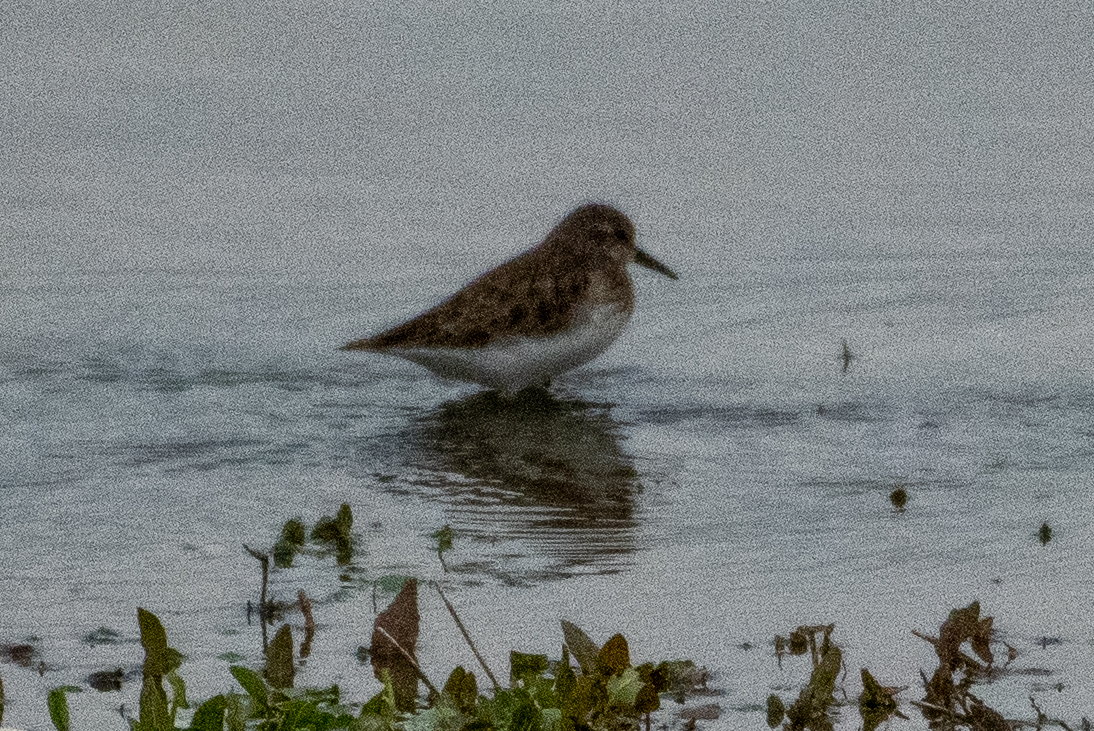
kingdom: Animalia
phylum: Chordata
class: Aves
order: Charadriiformes
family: Scolopacidae
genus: Calidris
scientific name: Calidris minutilla
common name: Least sandpiper
